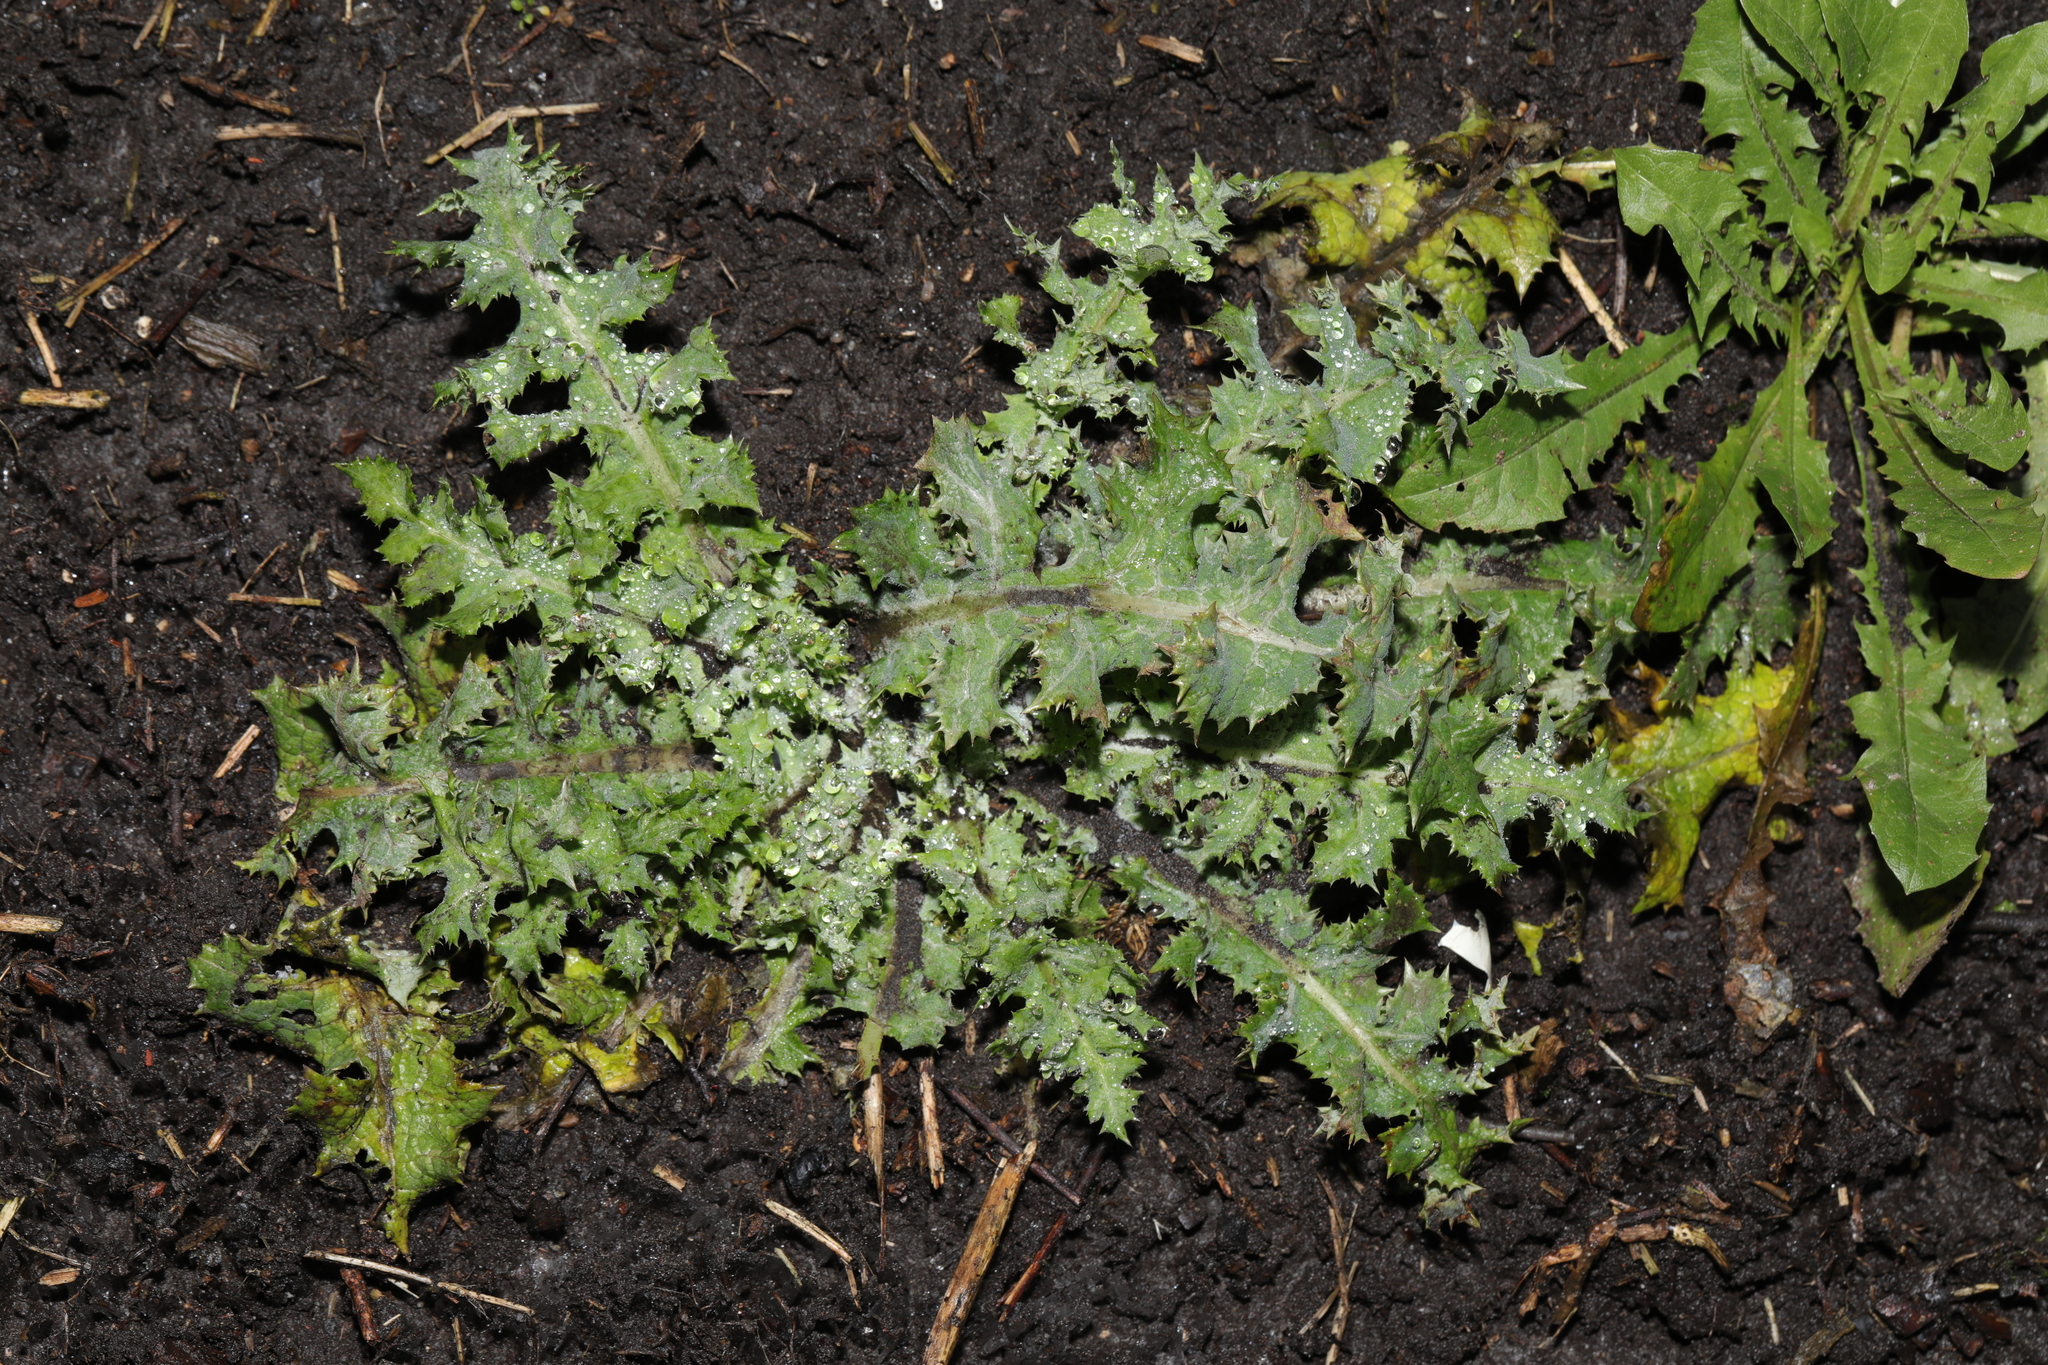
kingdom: Plantae
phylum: Tracheophyta
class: Magnoliopsida
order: Asterales
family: Asteraceae
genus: Sonchus
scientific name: Sonchus asper
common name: Prickly sow-thistle
